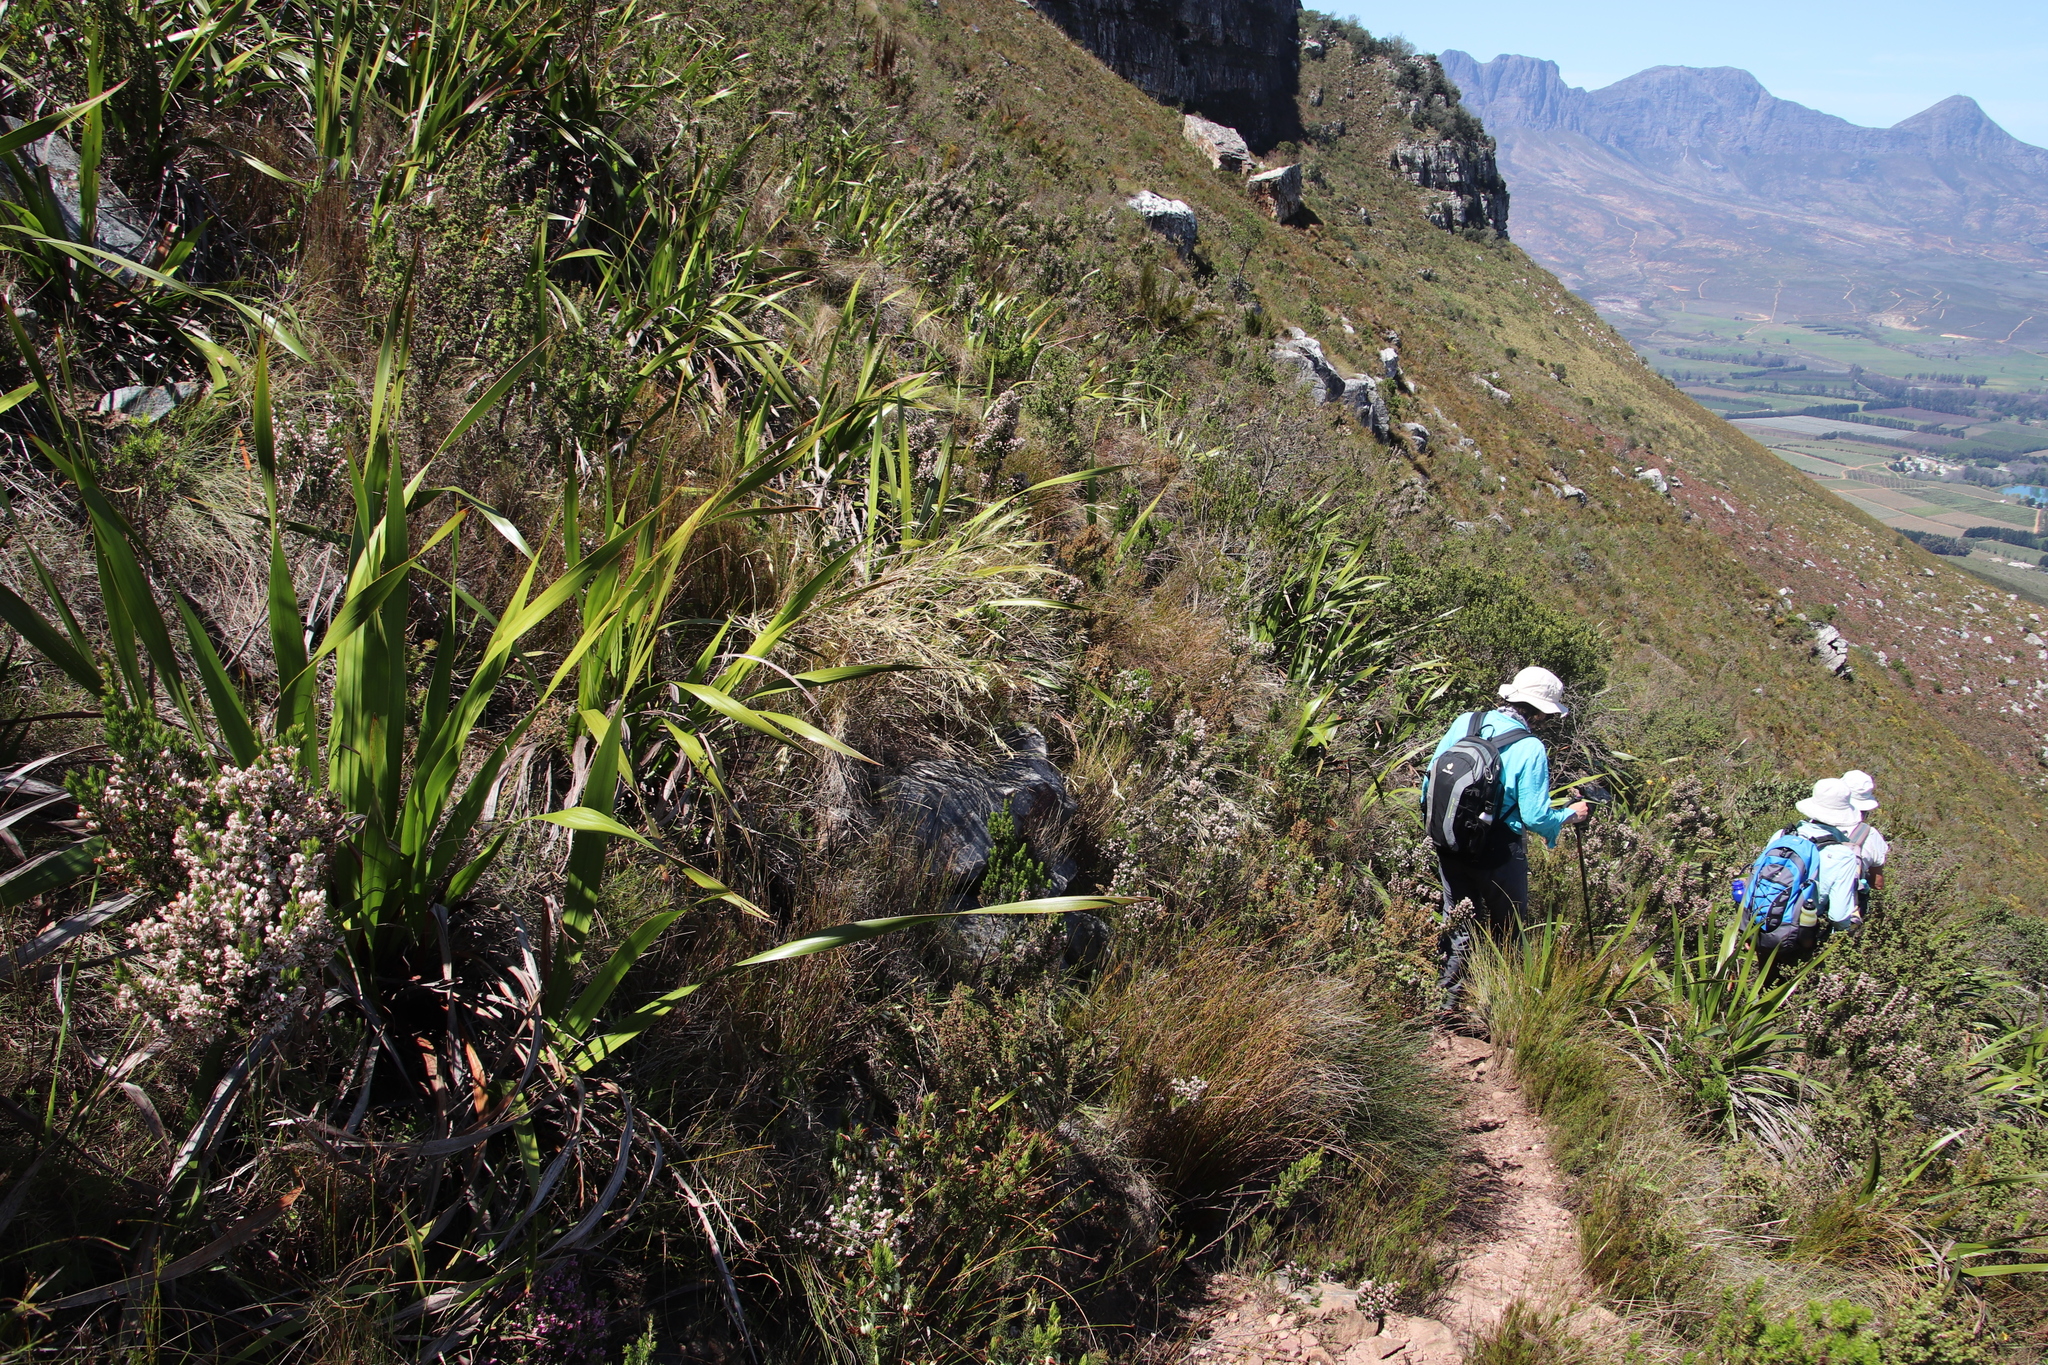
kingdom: Plantae
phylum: Tracheophyta
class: Liliopsida
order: Poales
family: Poaceae
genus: Pentameris
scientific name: Pentameris macrocalycina
